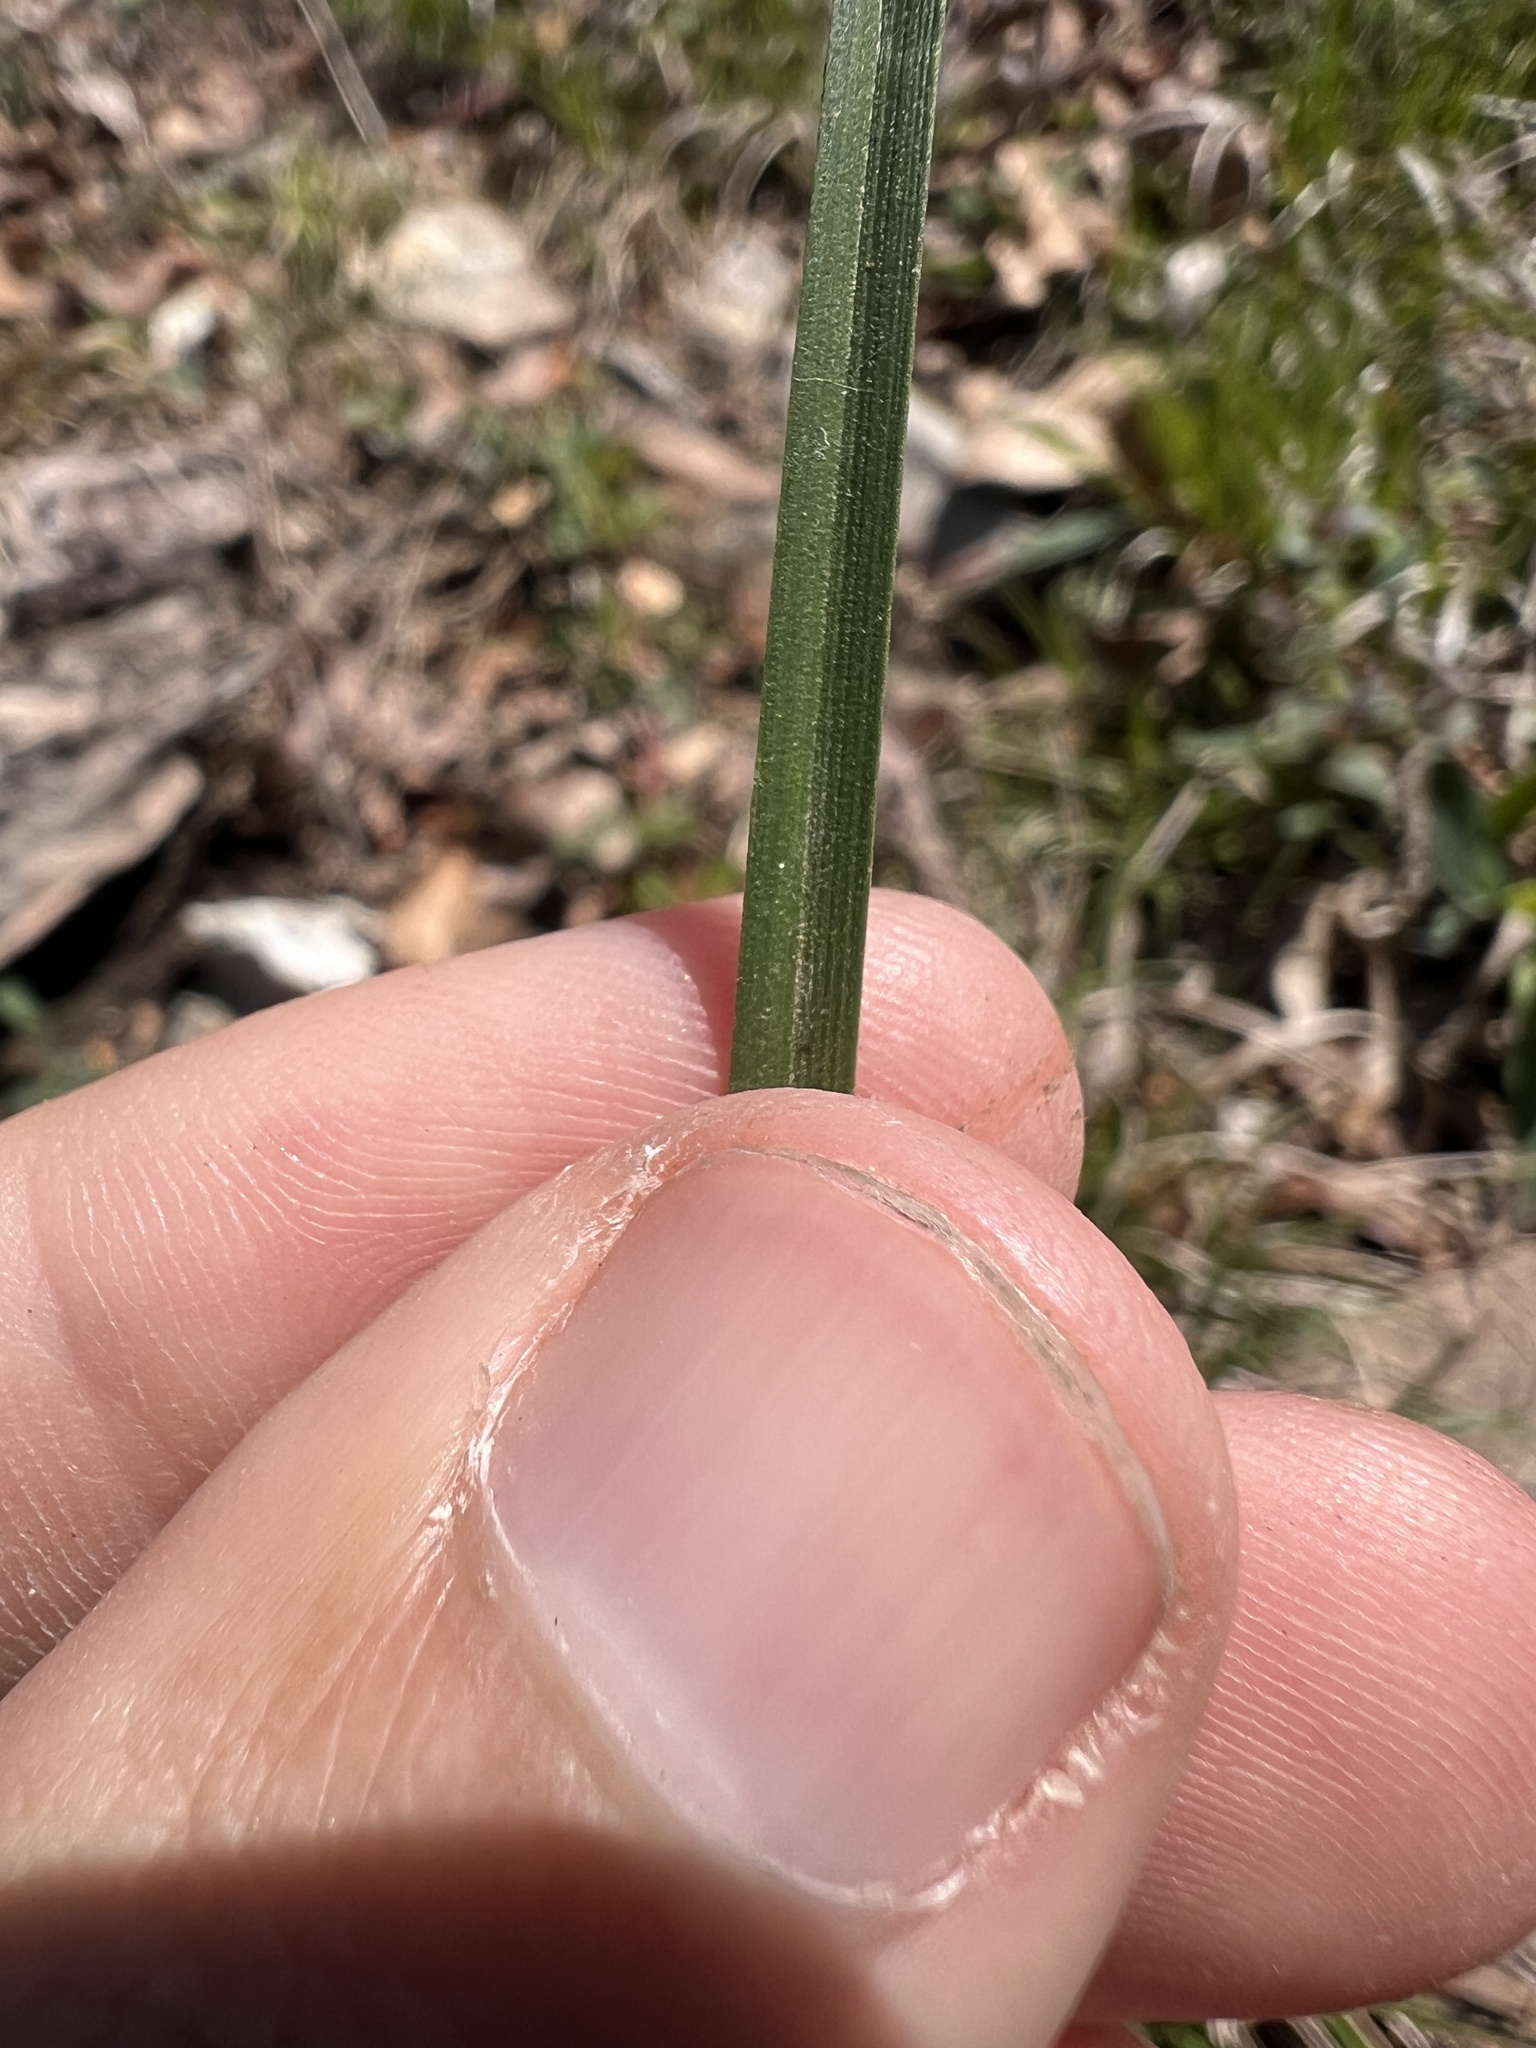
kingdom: Plantae
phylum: Tracheophyta
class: Liliopsida
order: Poales
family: Cyperaceae
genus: Carex
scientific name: Carex umbellata
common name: Early oak sedge
